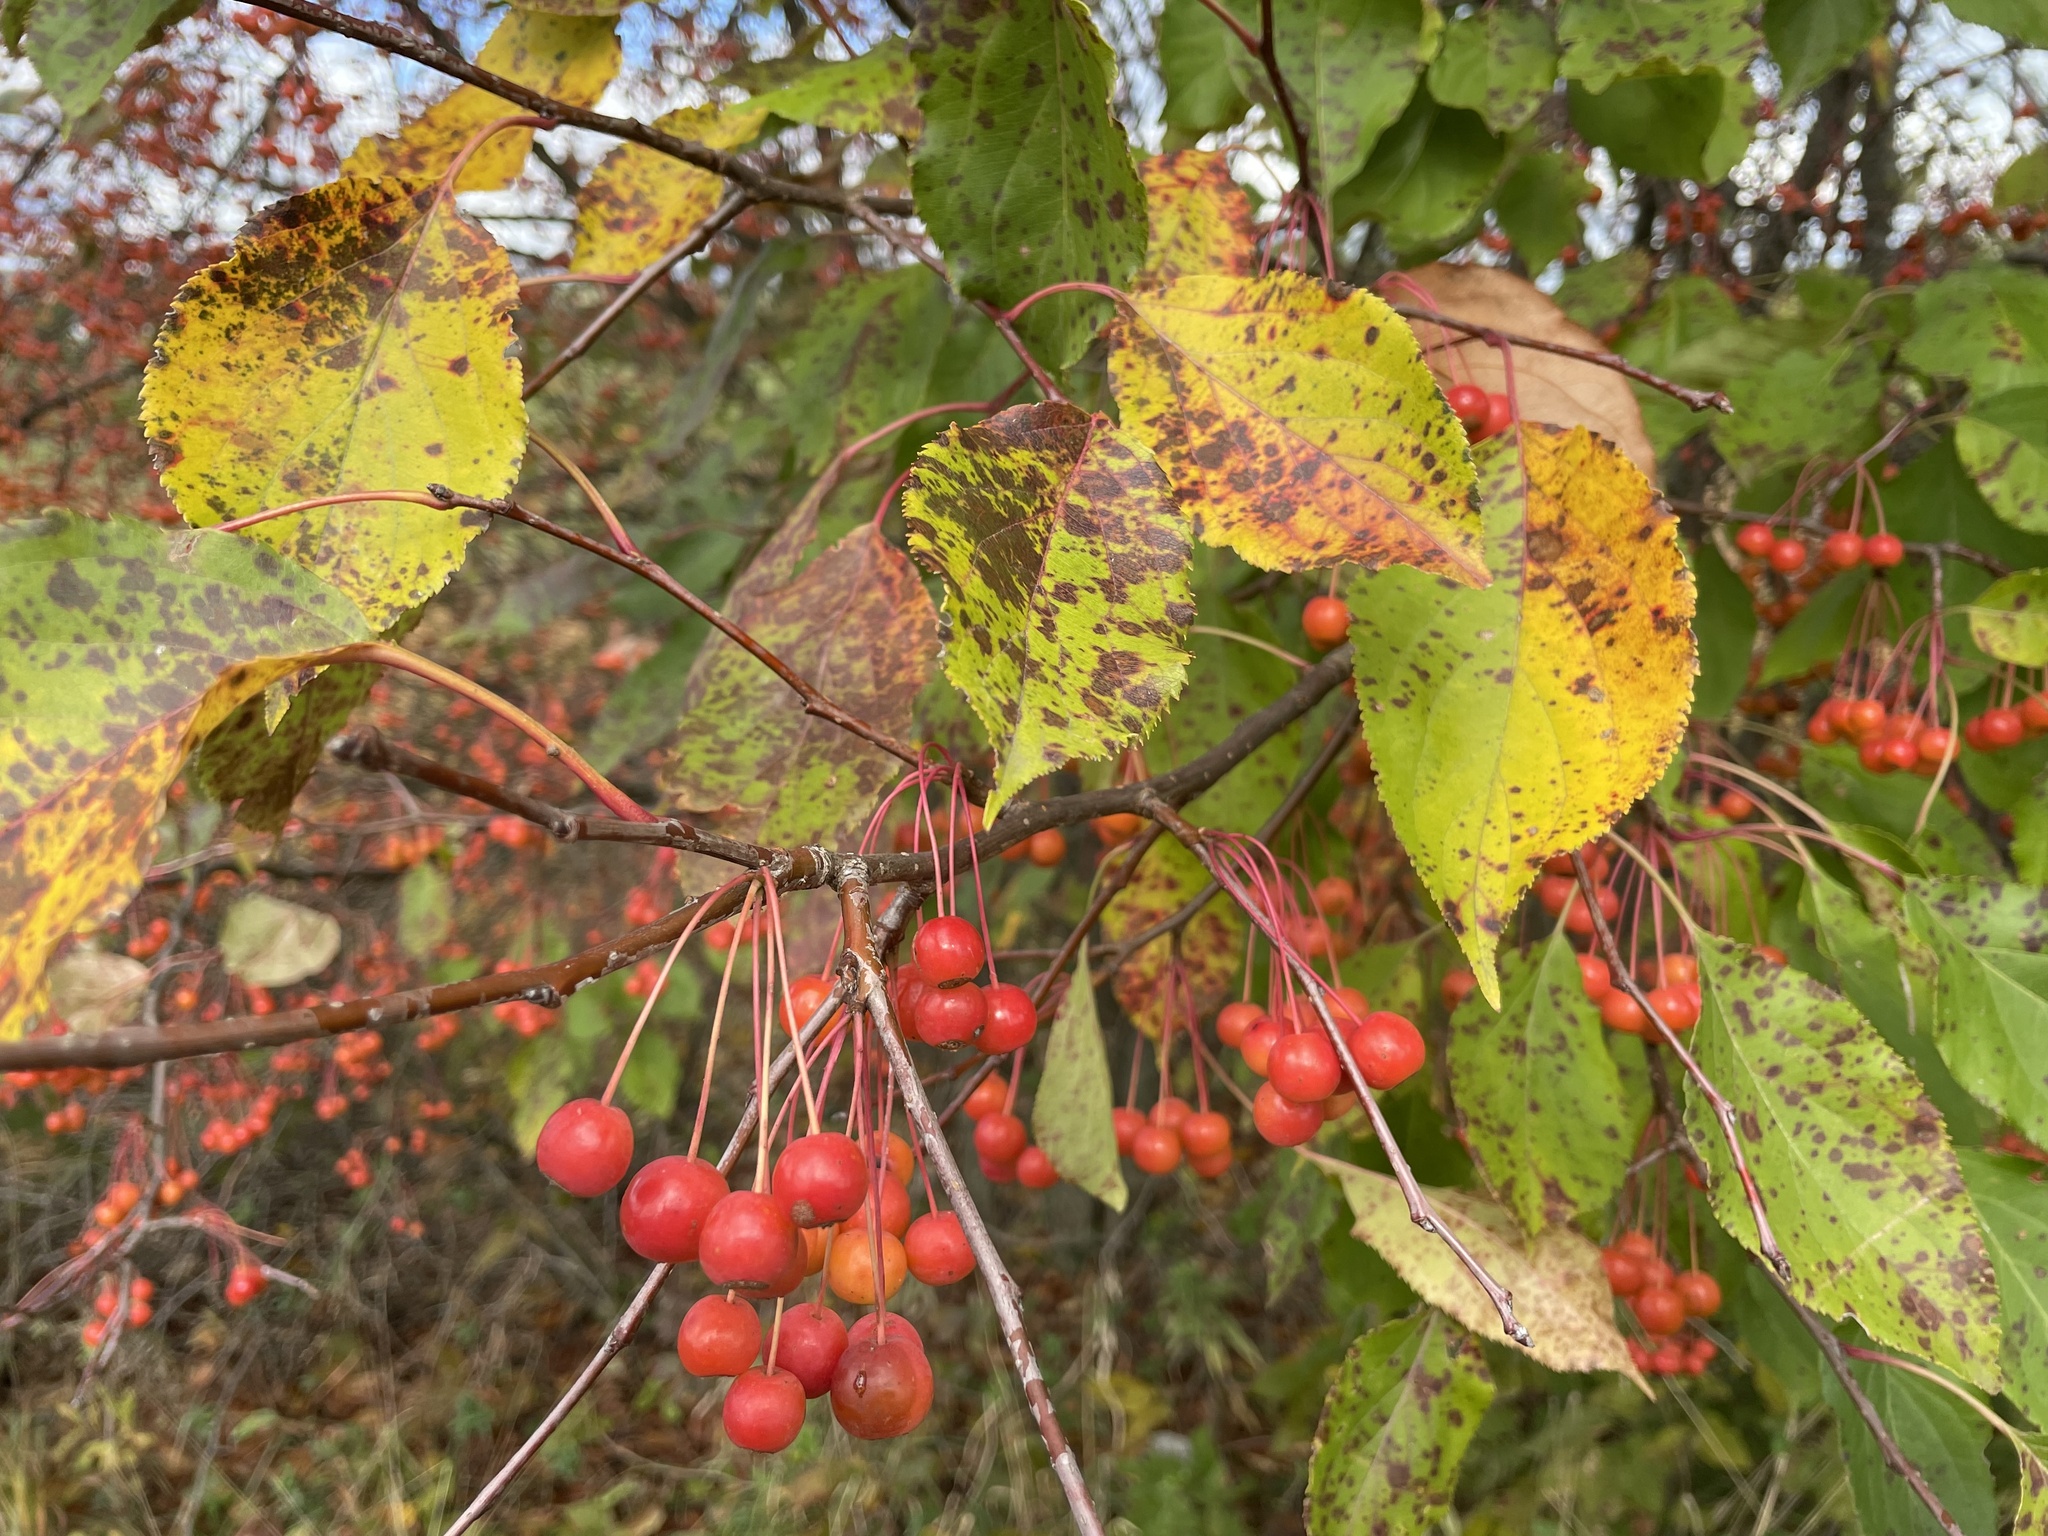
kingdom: Plantae
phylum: Tracheophyta
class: Magnoliopsida
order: Rosales
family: Rosaceae
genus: Malus
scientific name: Malus baccata
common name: Siberian crab
